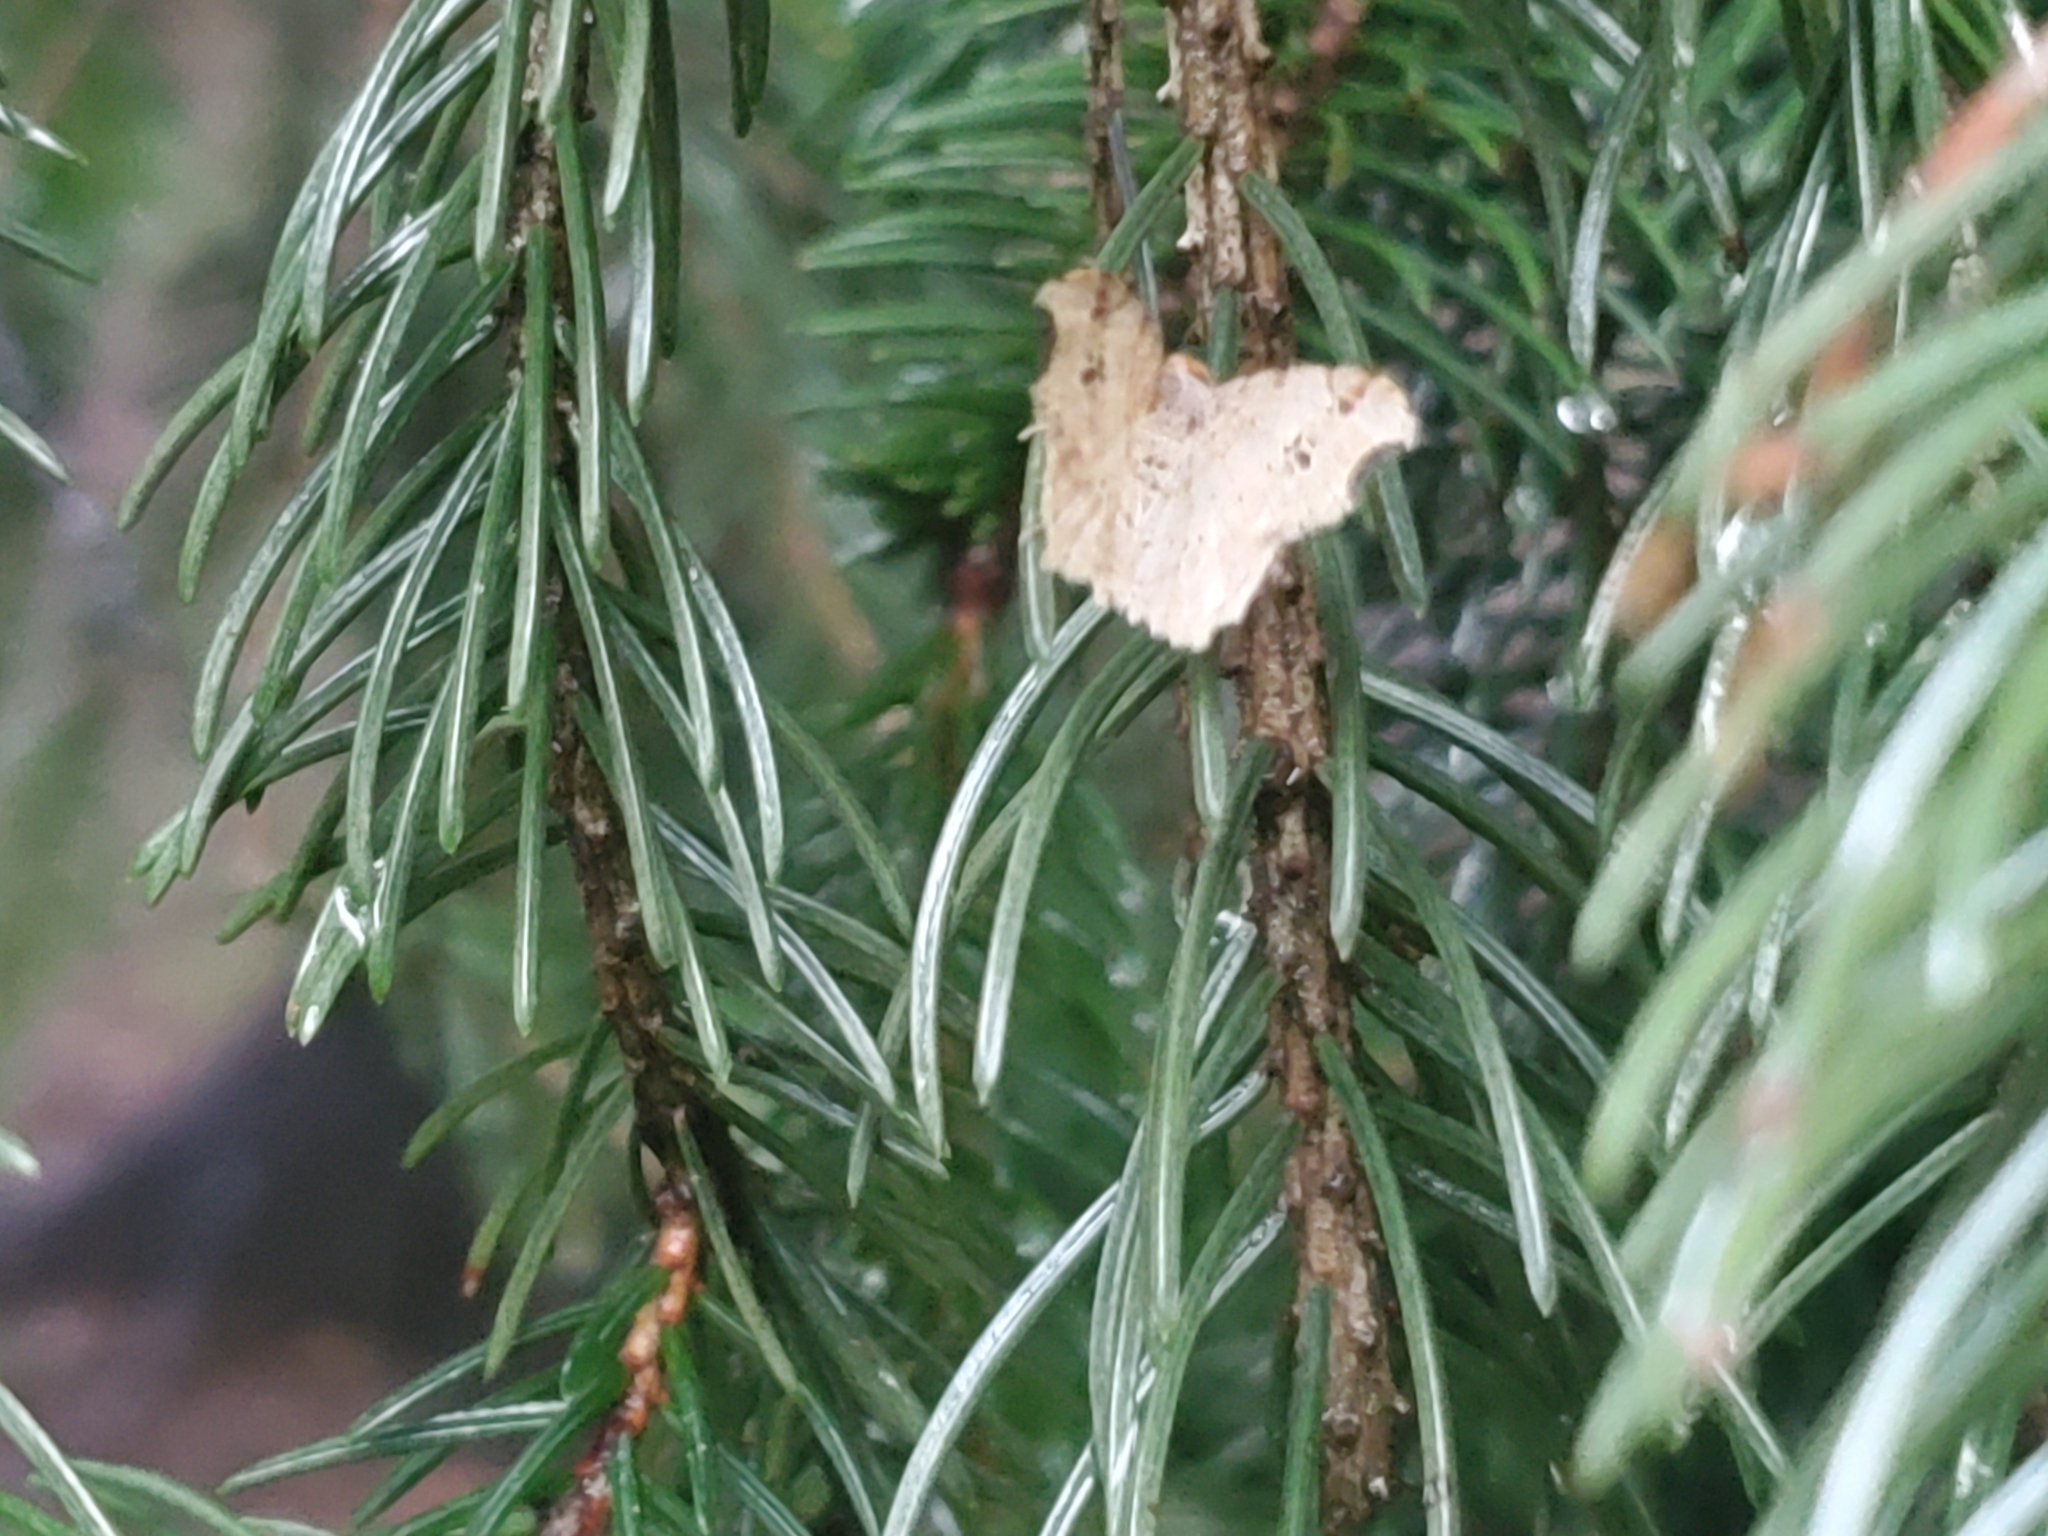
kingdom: Animalia
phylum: Arthropoda
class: Insecta
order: Lepidoptera
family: Geometridae
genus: Macaria
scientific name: Macaria aemulataria
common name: Common angle
